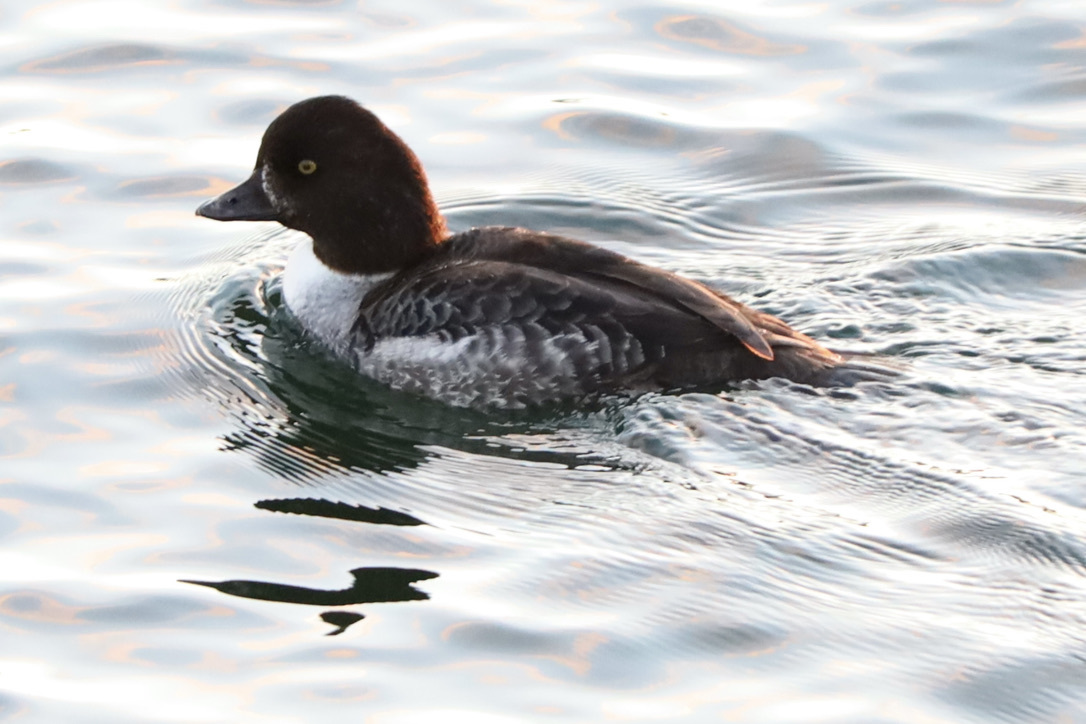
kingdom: Animalia
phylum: Chordata
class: Aves
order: Anseriformes
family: Anatidae
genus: Bucephala
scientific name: Bucephala islandica
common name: Barrow's goldeneye
